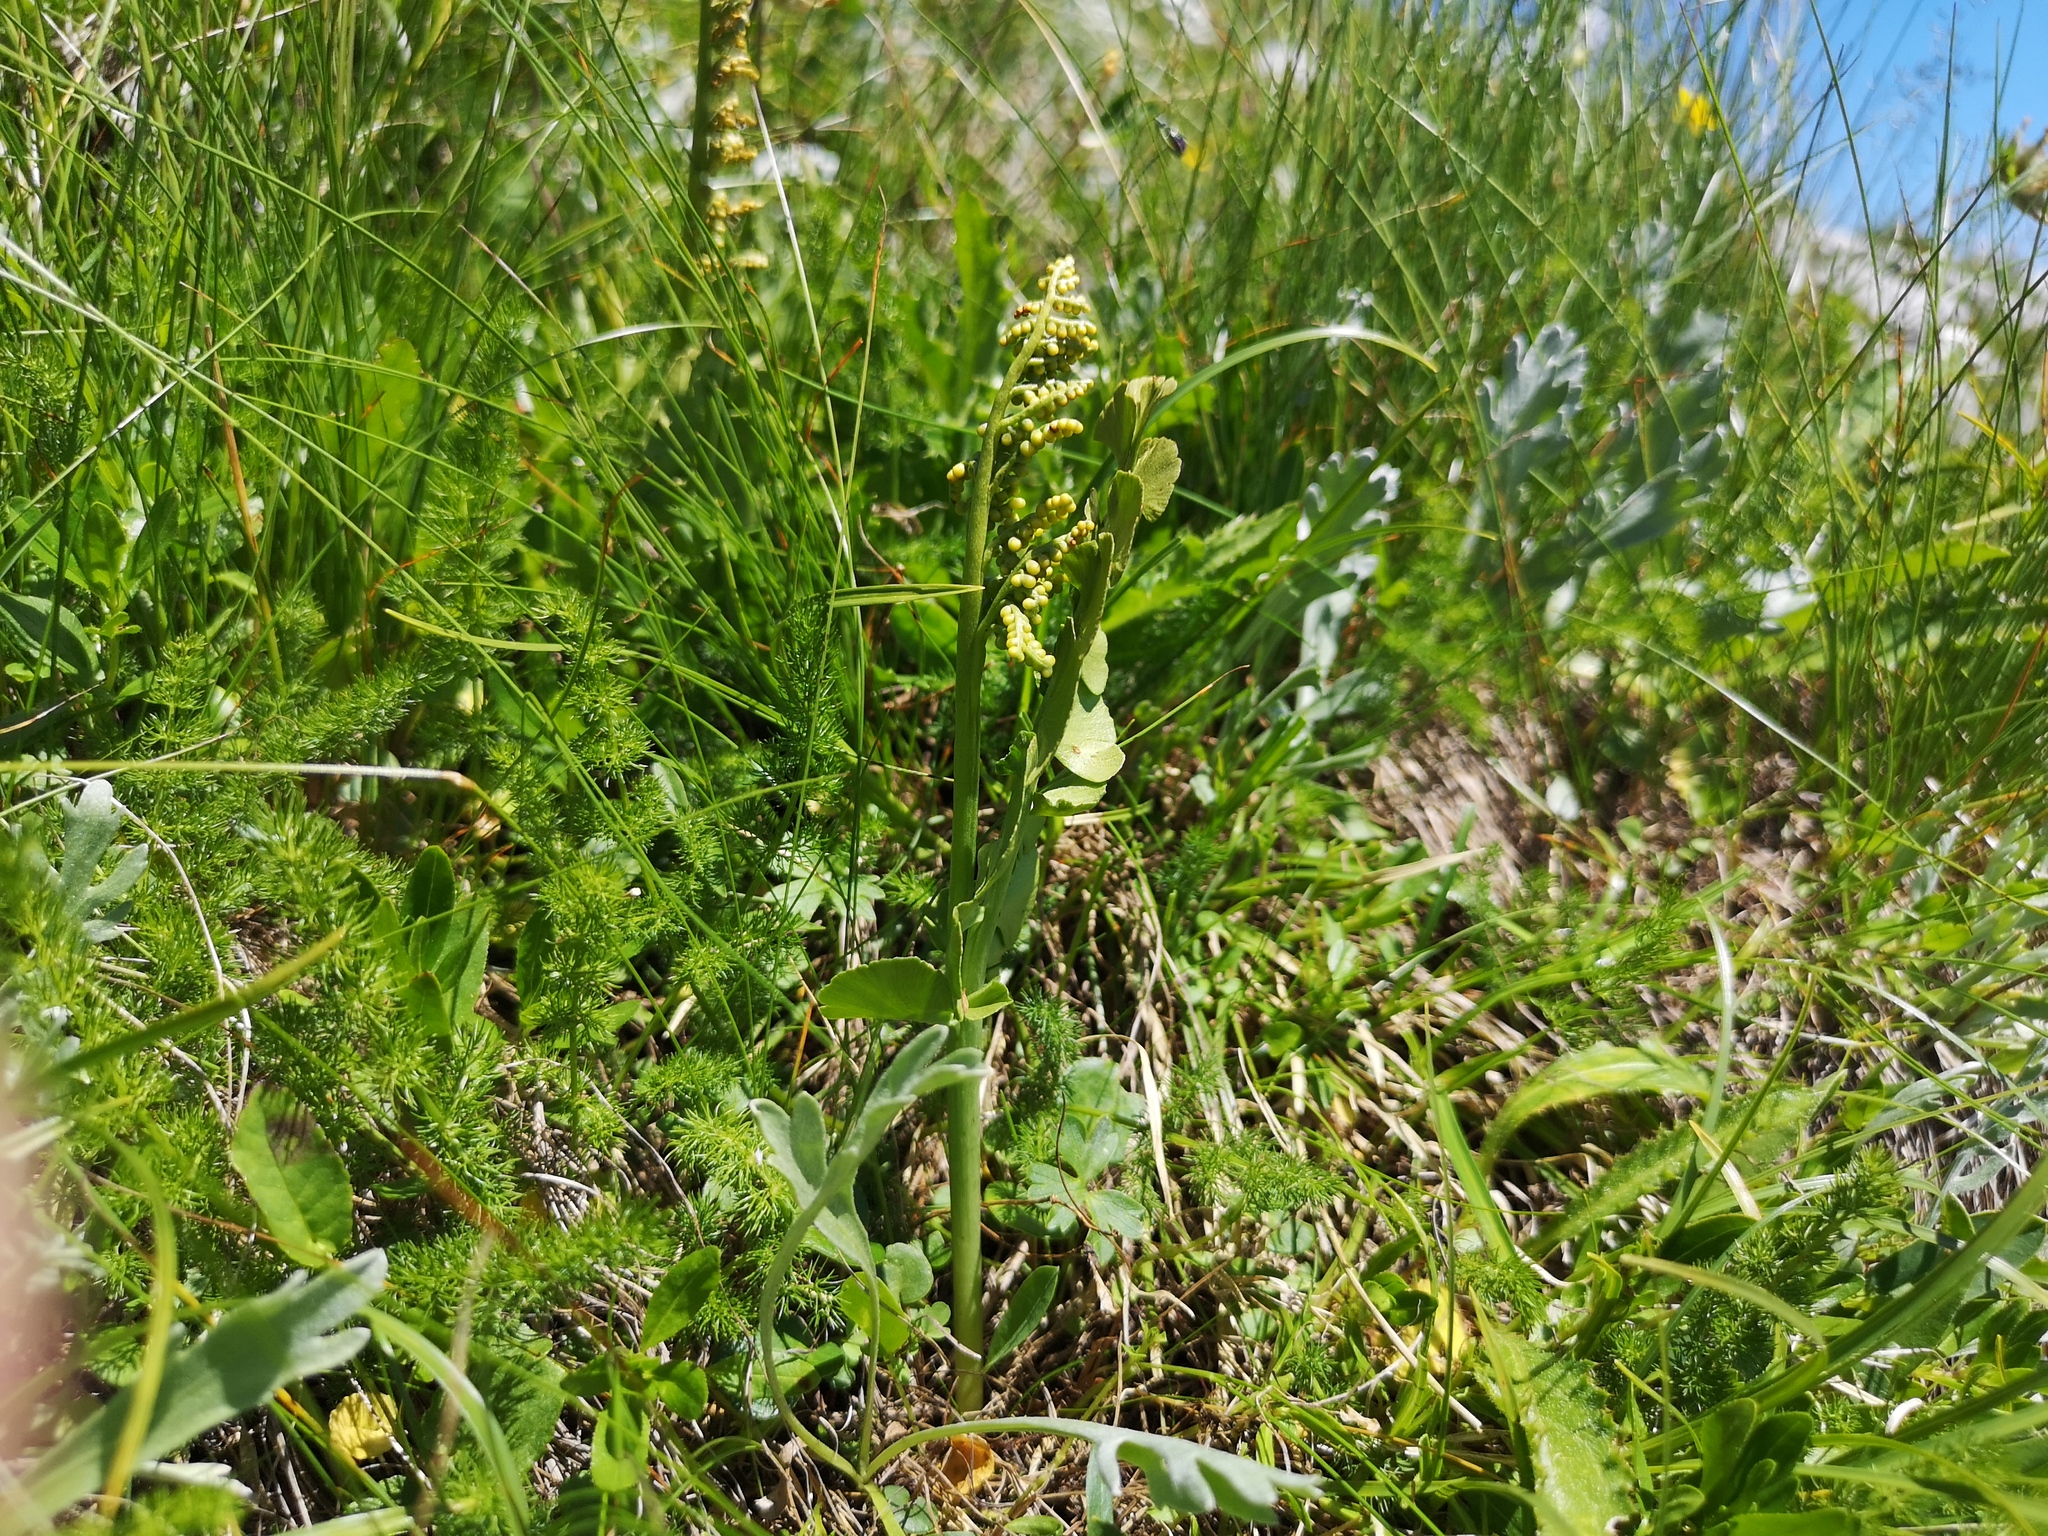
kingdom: Plantae
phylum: Tracheophyta
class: Polypodiopsida
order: Ophioglossales
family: Ophioglossaceae
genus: Botrychium
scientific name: Botrychium lunaria
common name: Moonwort
